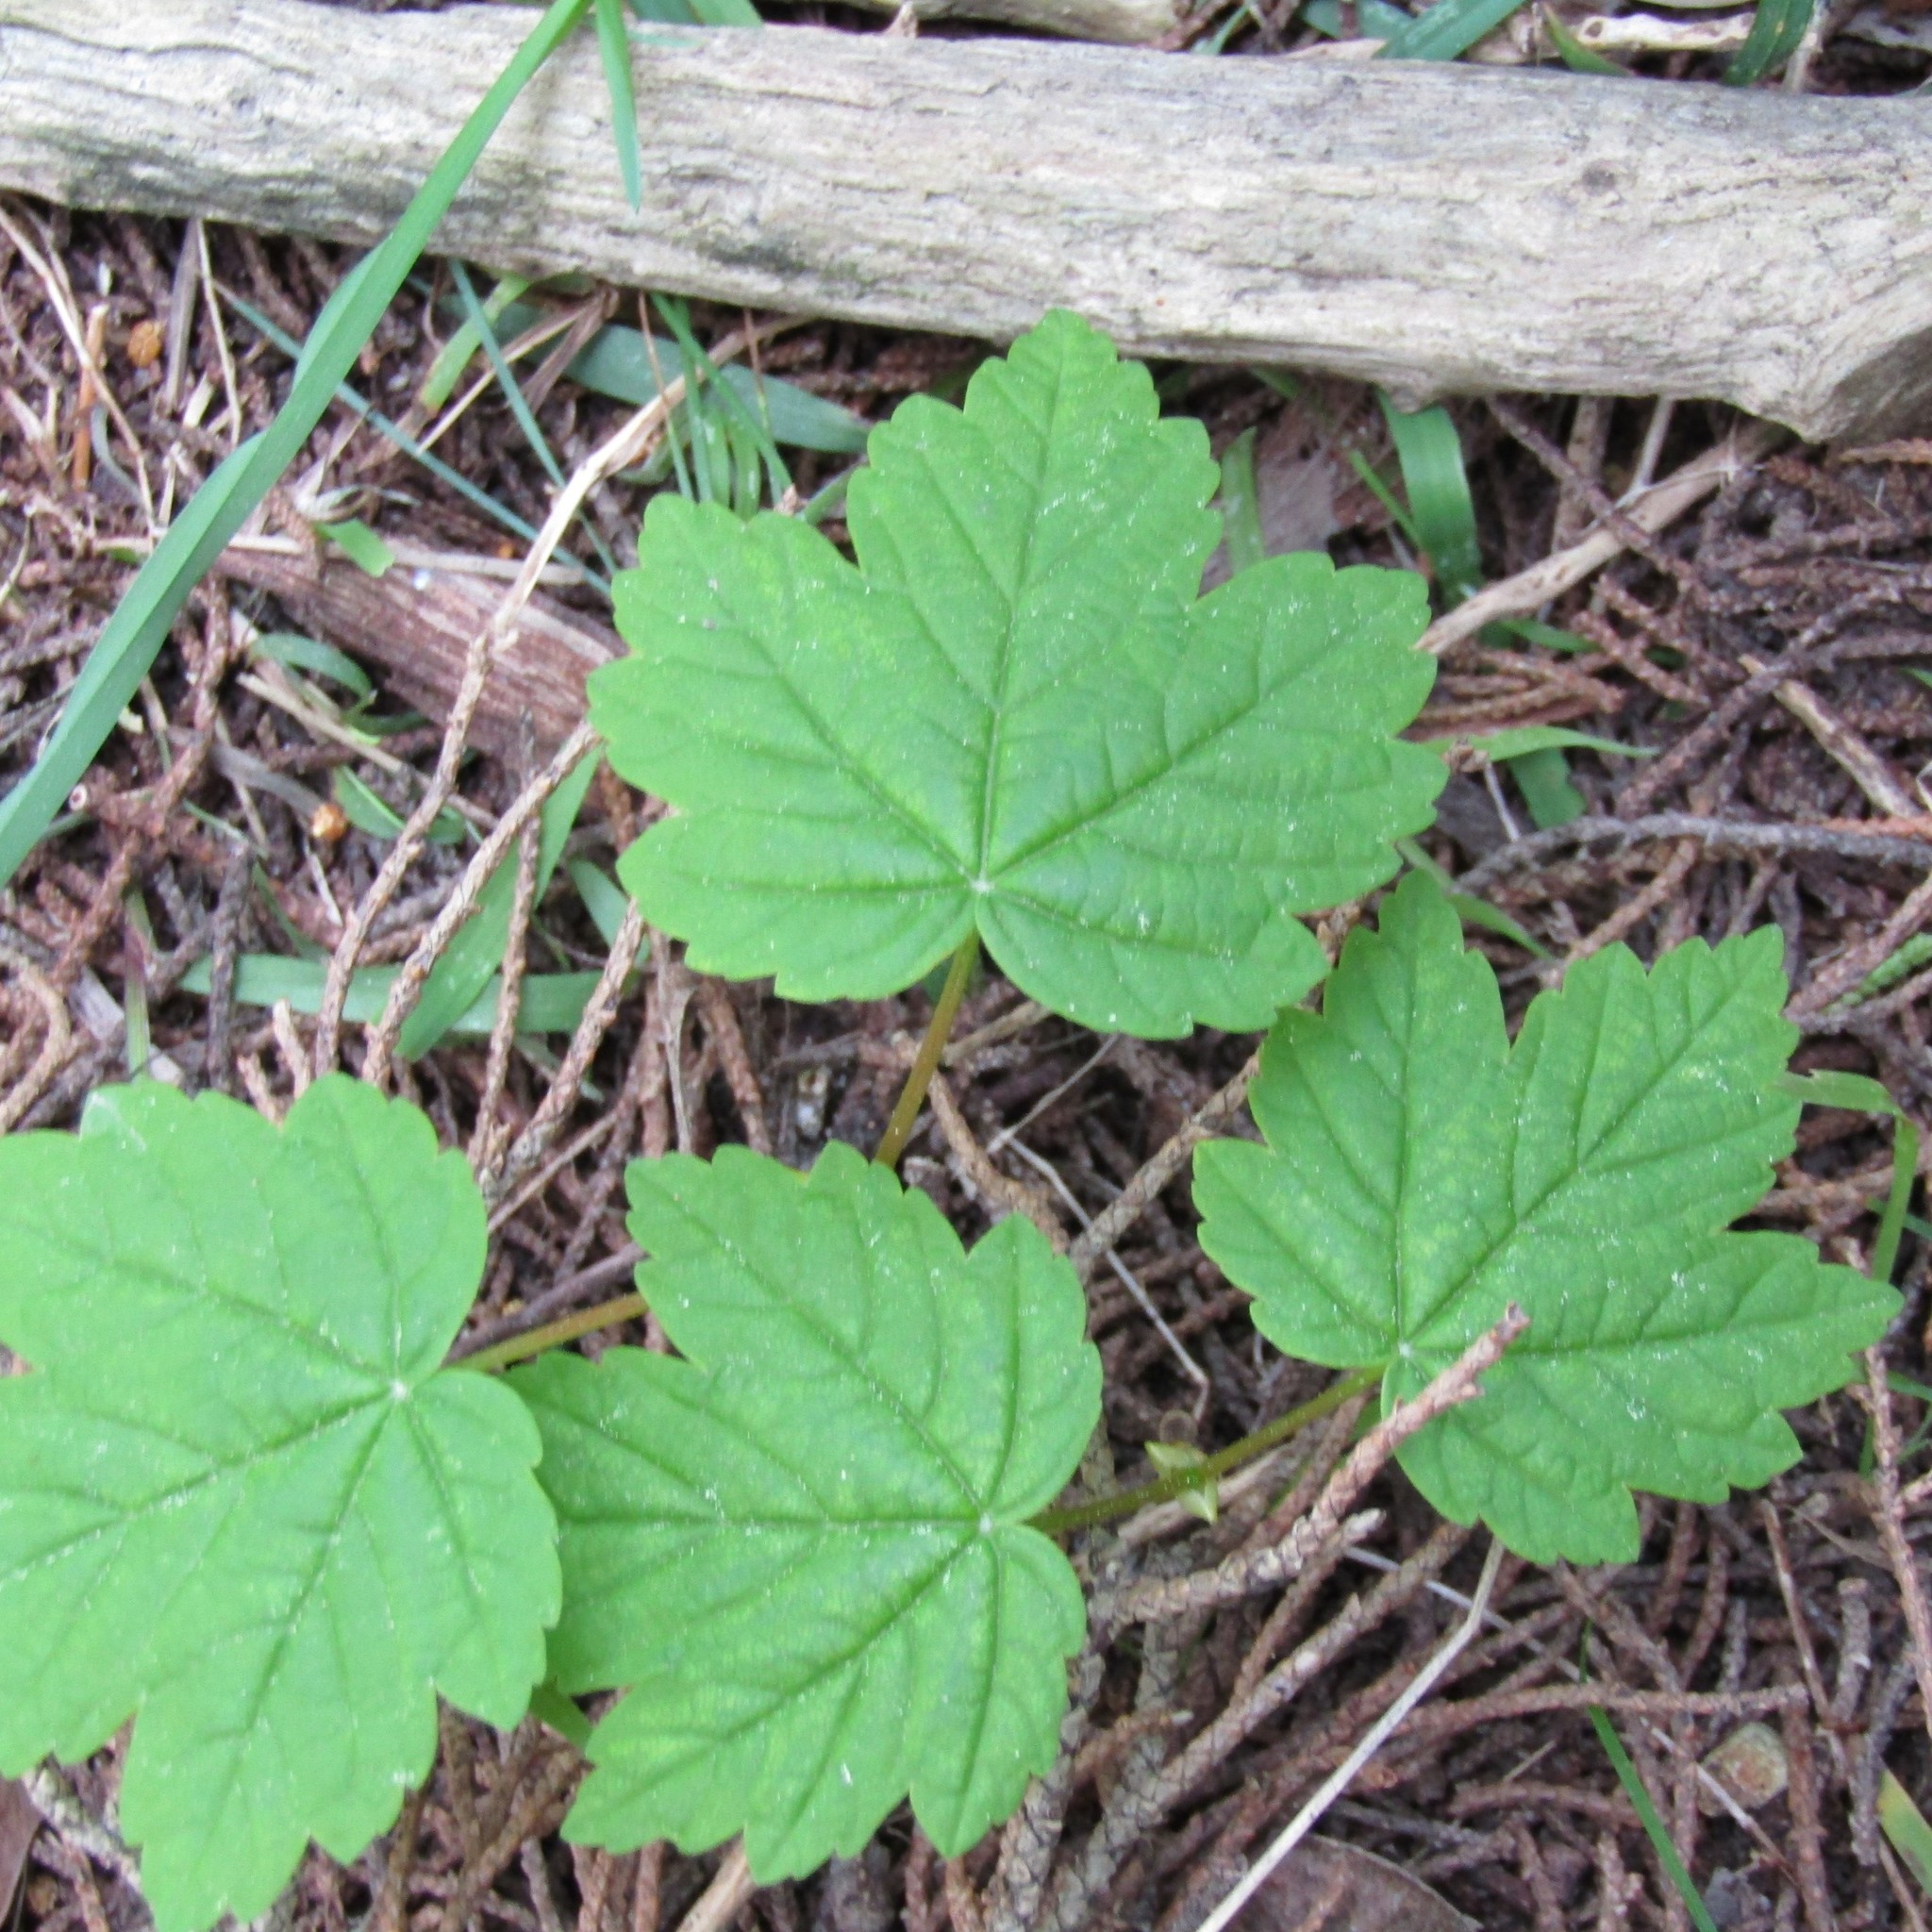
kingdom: Plantae
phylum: Tracheophyta
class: Magnoliopsida
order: Sapindales
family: Sapindaceae
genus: Acer
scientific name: Acer pseudoplatanus
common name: Sycamore
